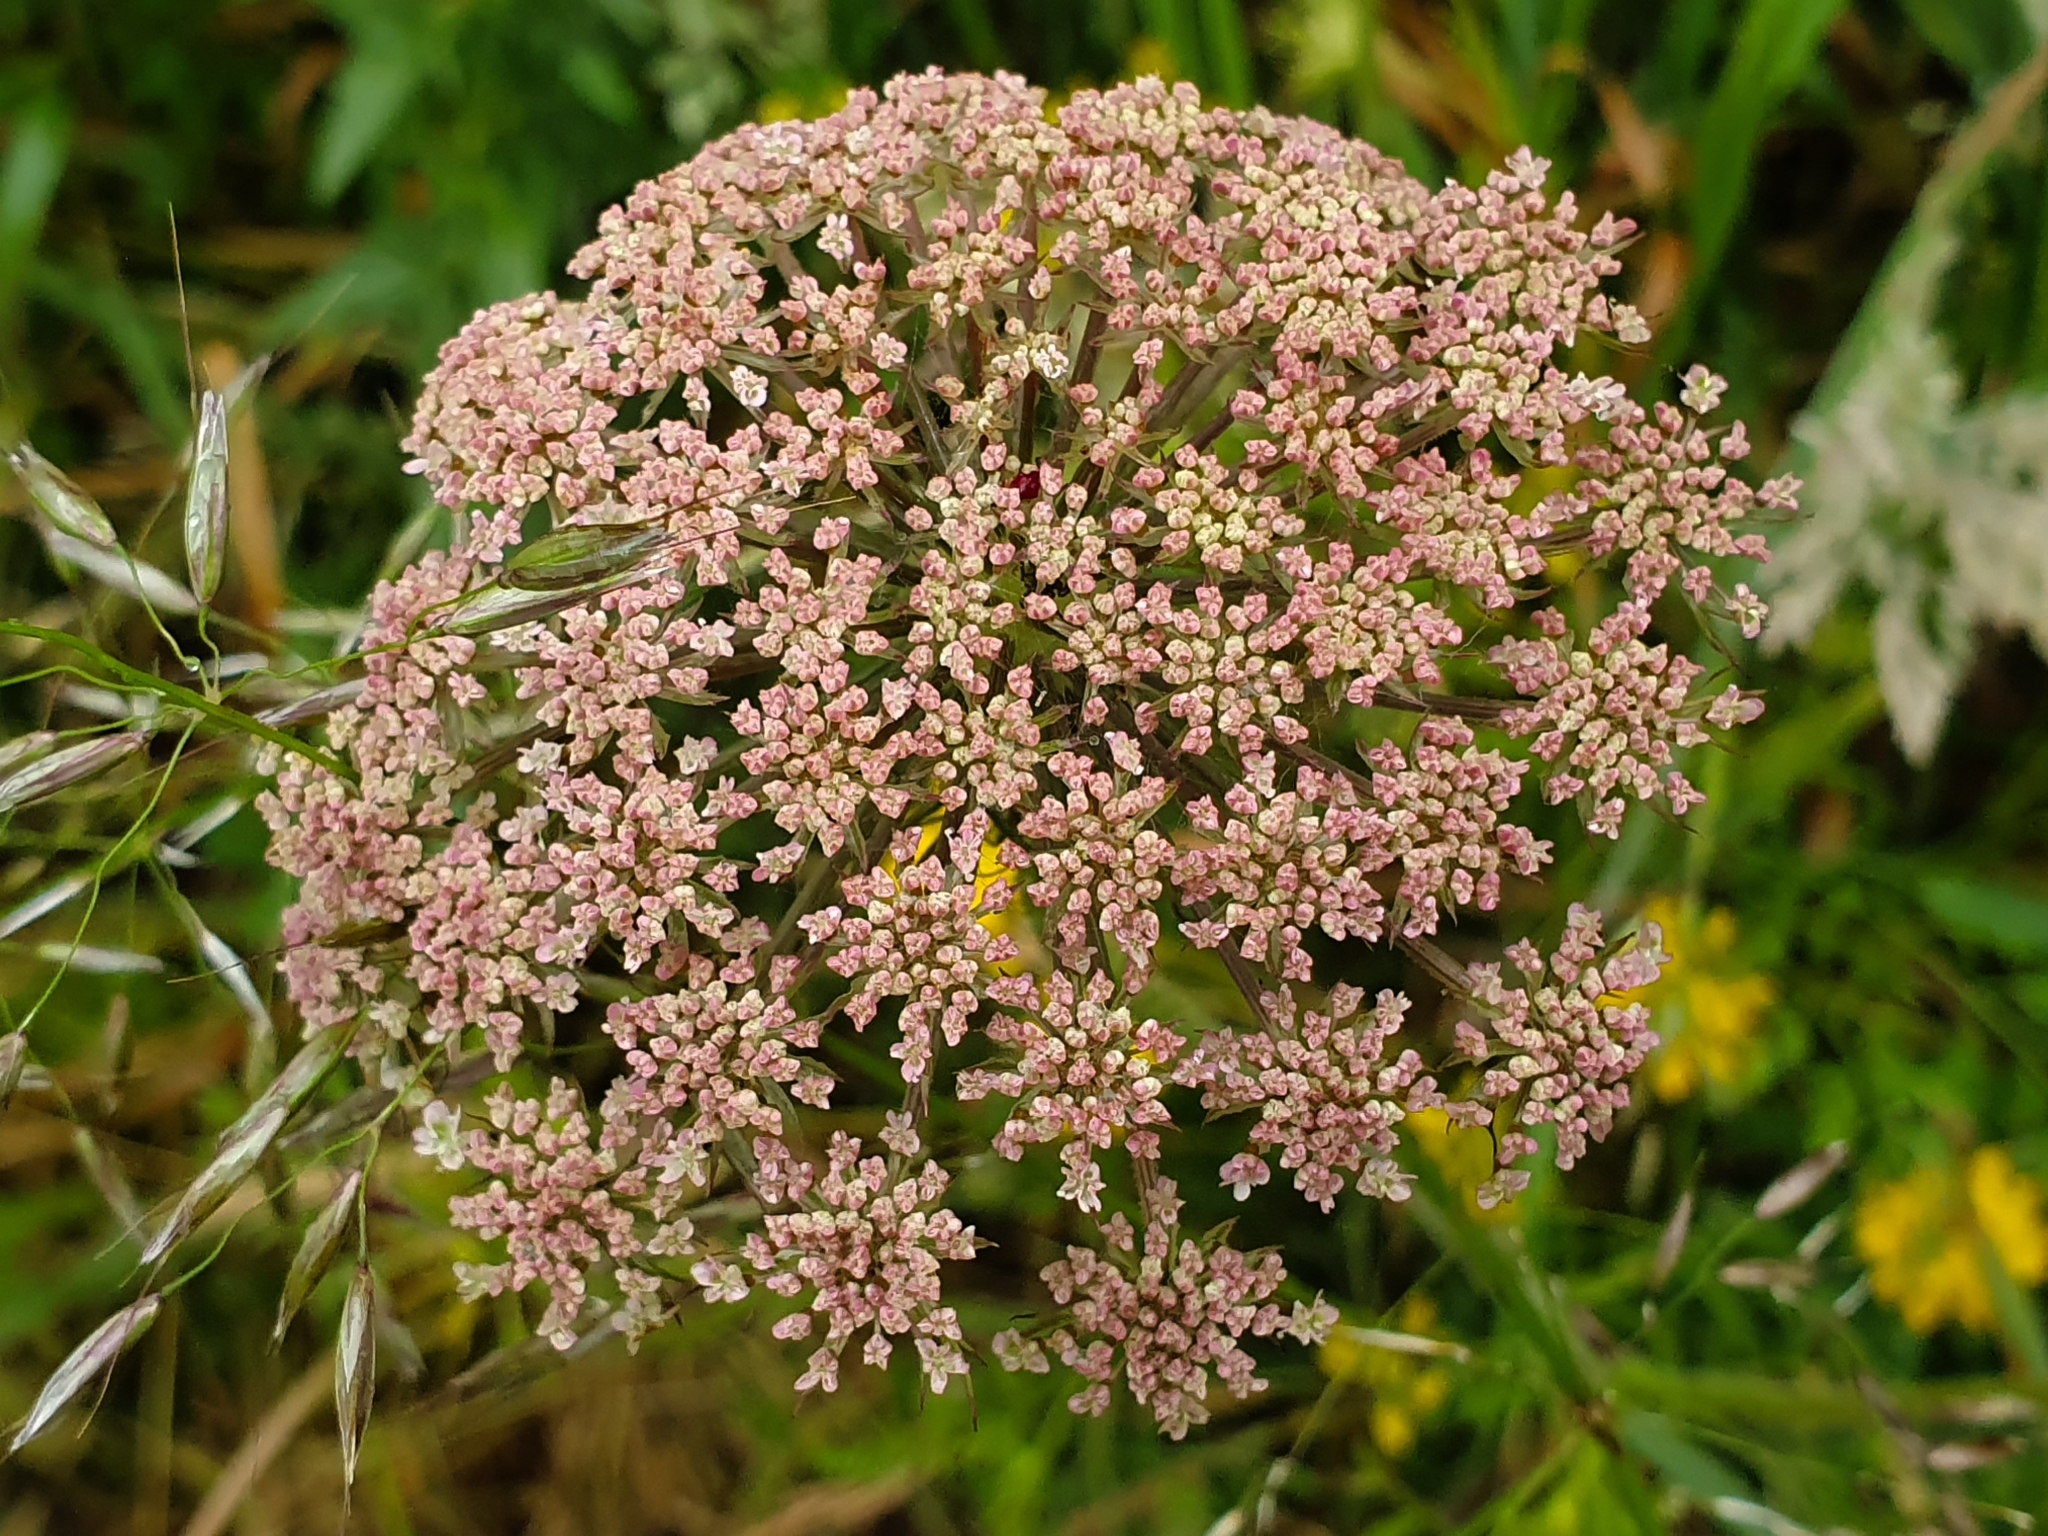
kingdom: Plantae
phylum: Tracheophyta
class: Magnoliopsida
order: Apiales
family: Apiaceae
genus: Daucus
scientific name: Daucus carota
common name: Wild carrot
